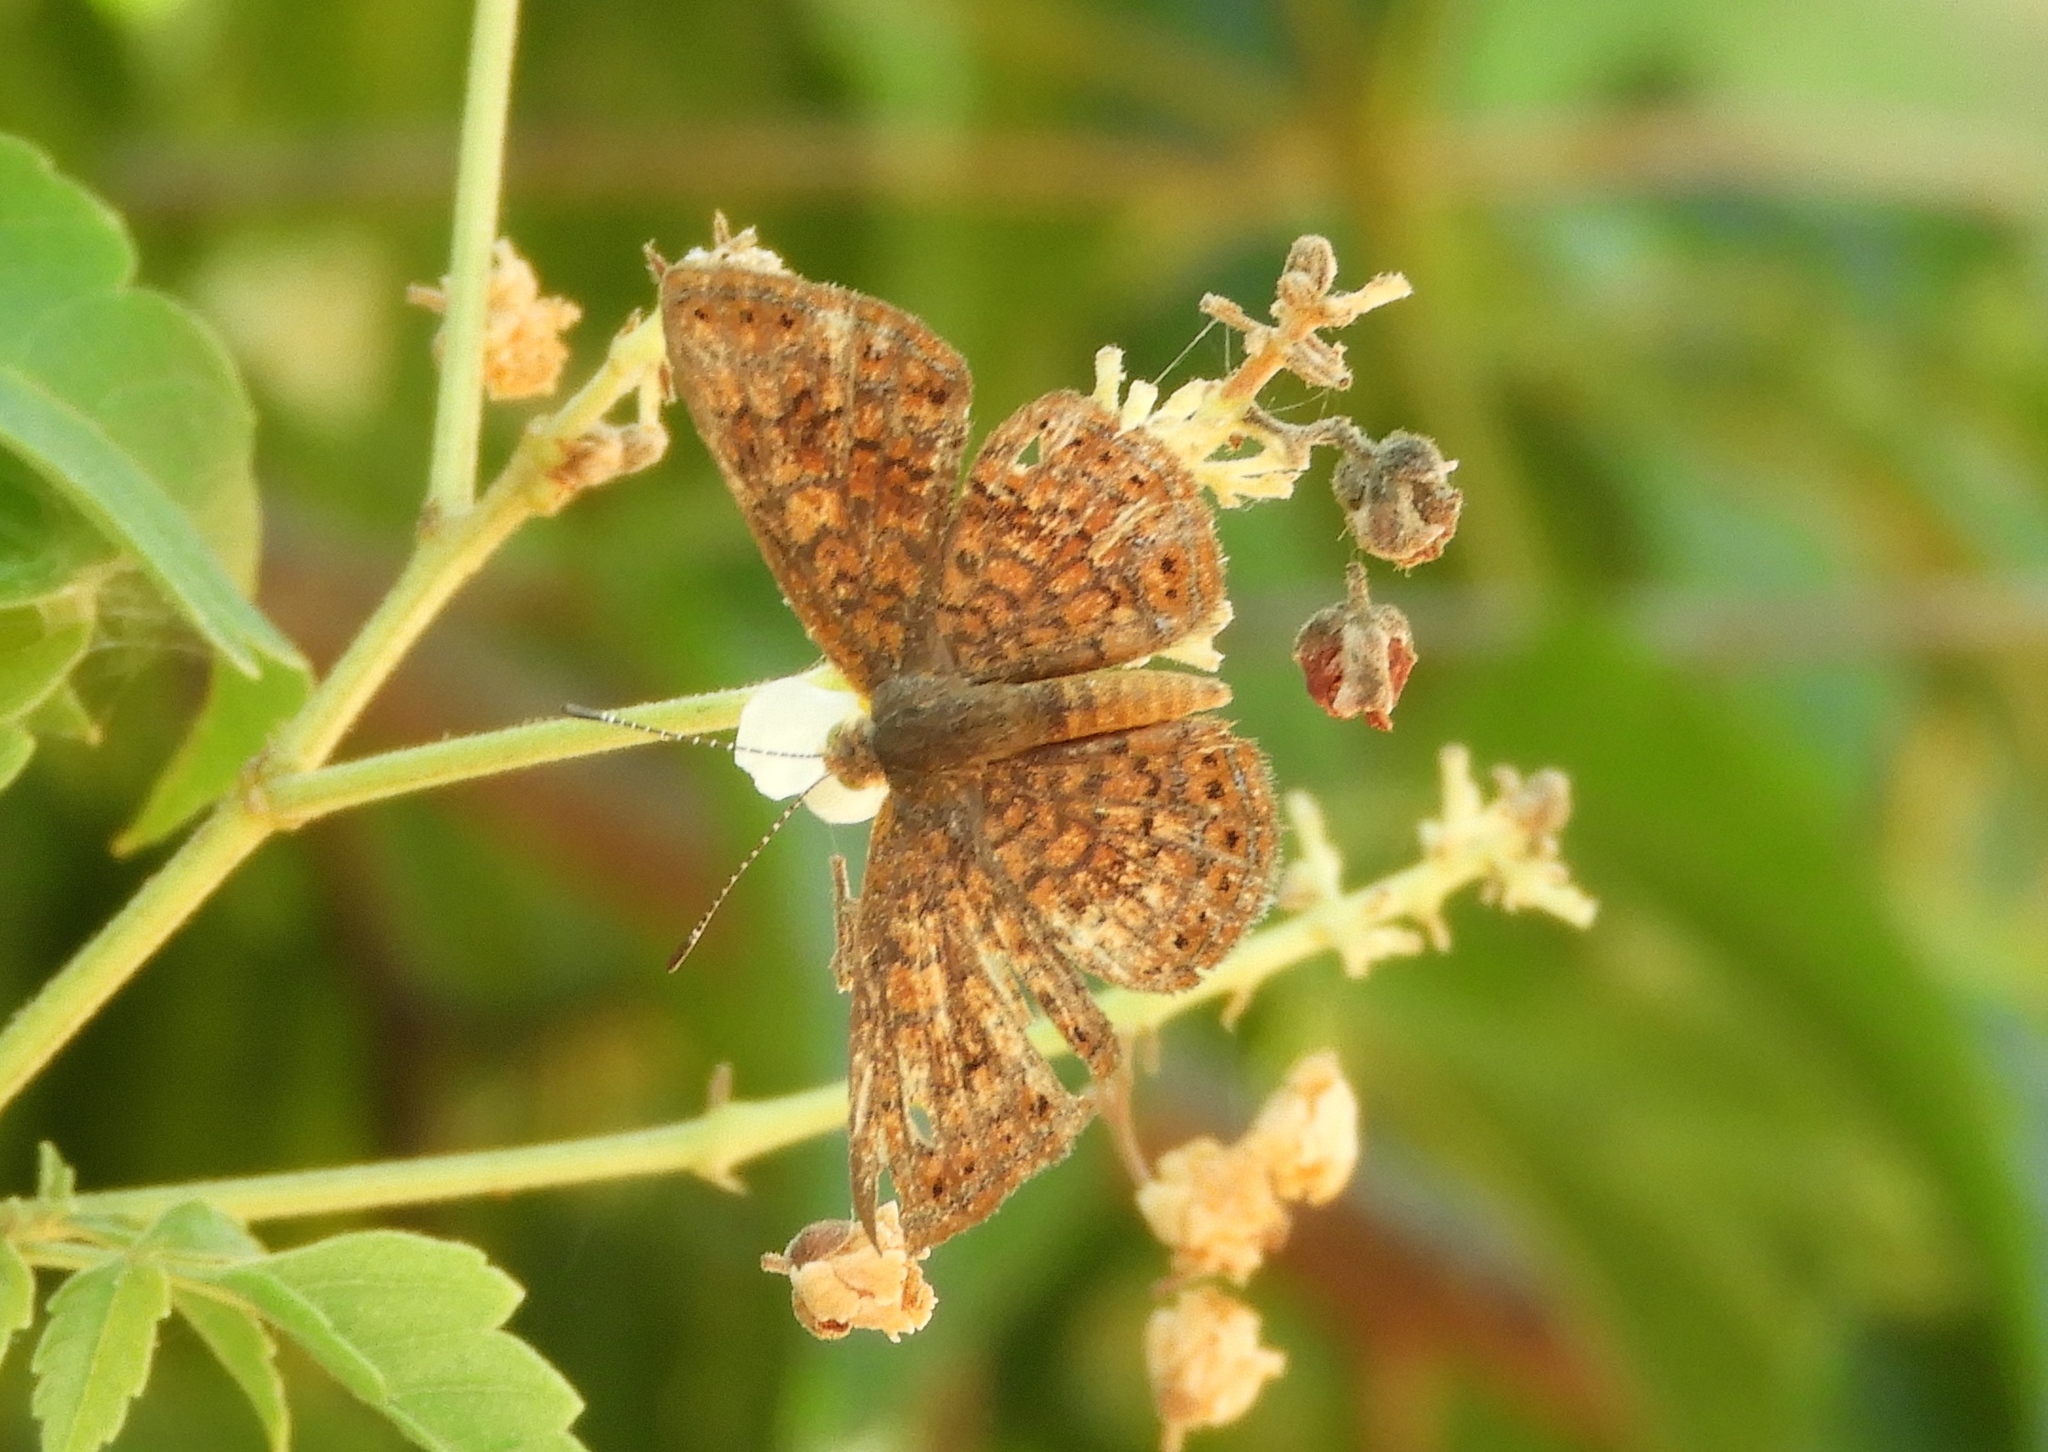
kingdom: Animalia
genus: Calephelis
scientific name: Calephelis
